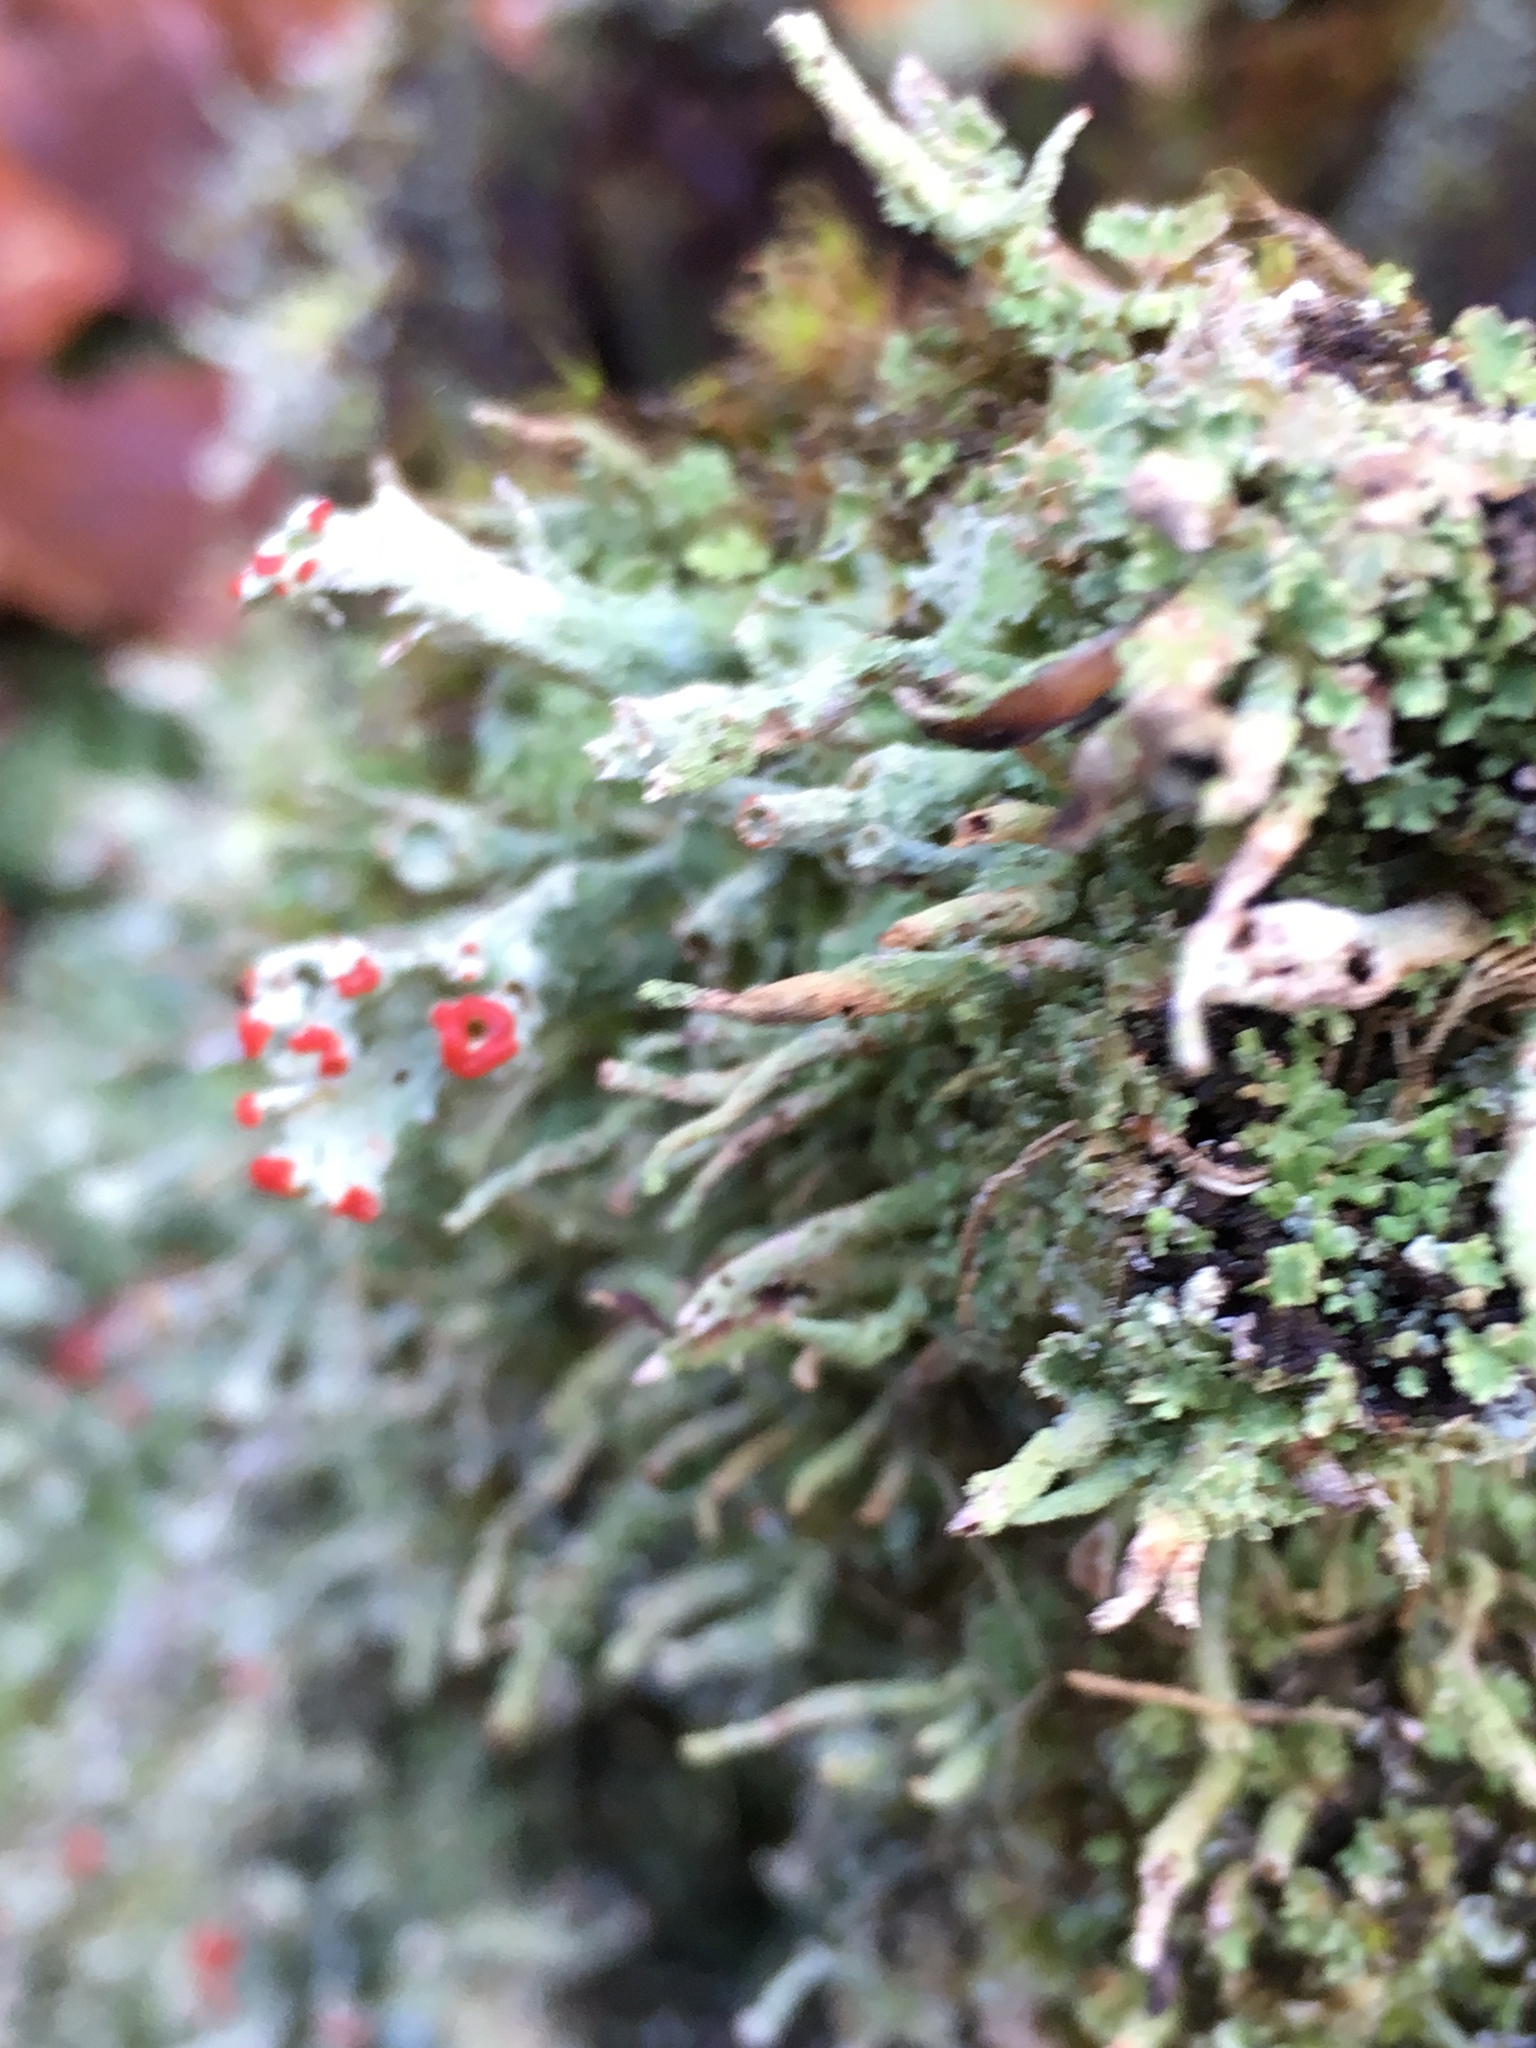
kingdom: Fungi
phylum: Ascomycota
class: Lecanoromycetes
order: Lecanorales
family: Cladoniaceae
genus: Cladonia
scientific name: Cladonia digitata
